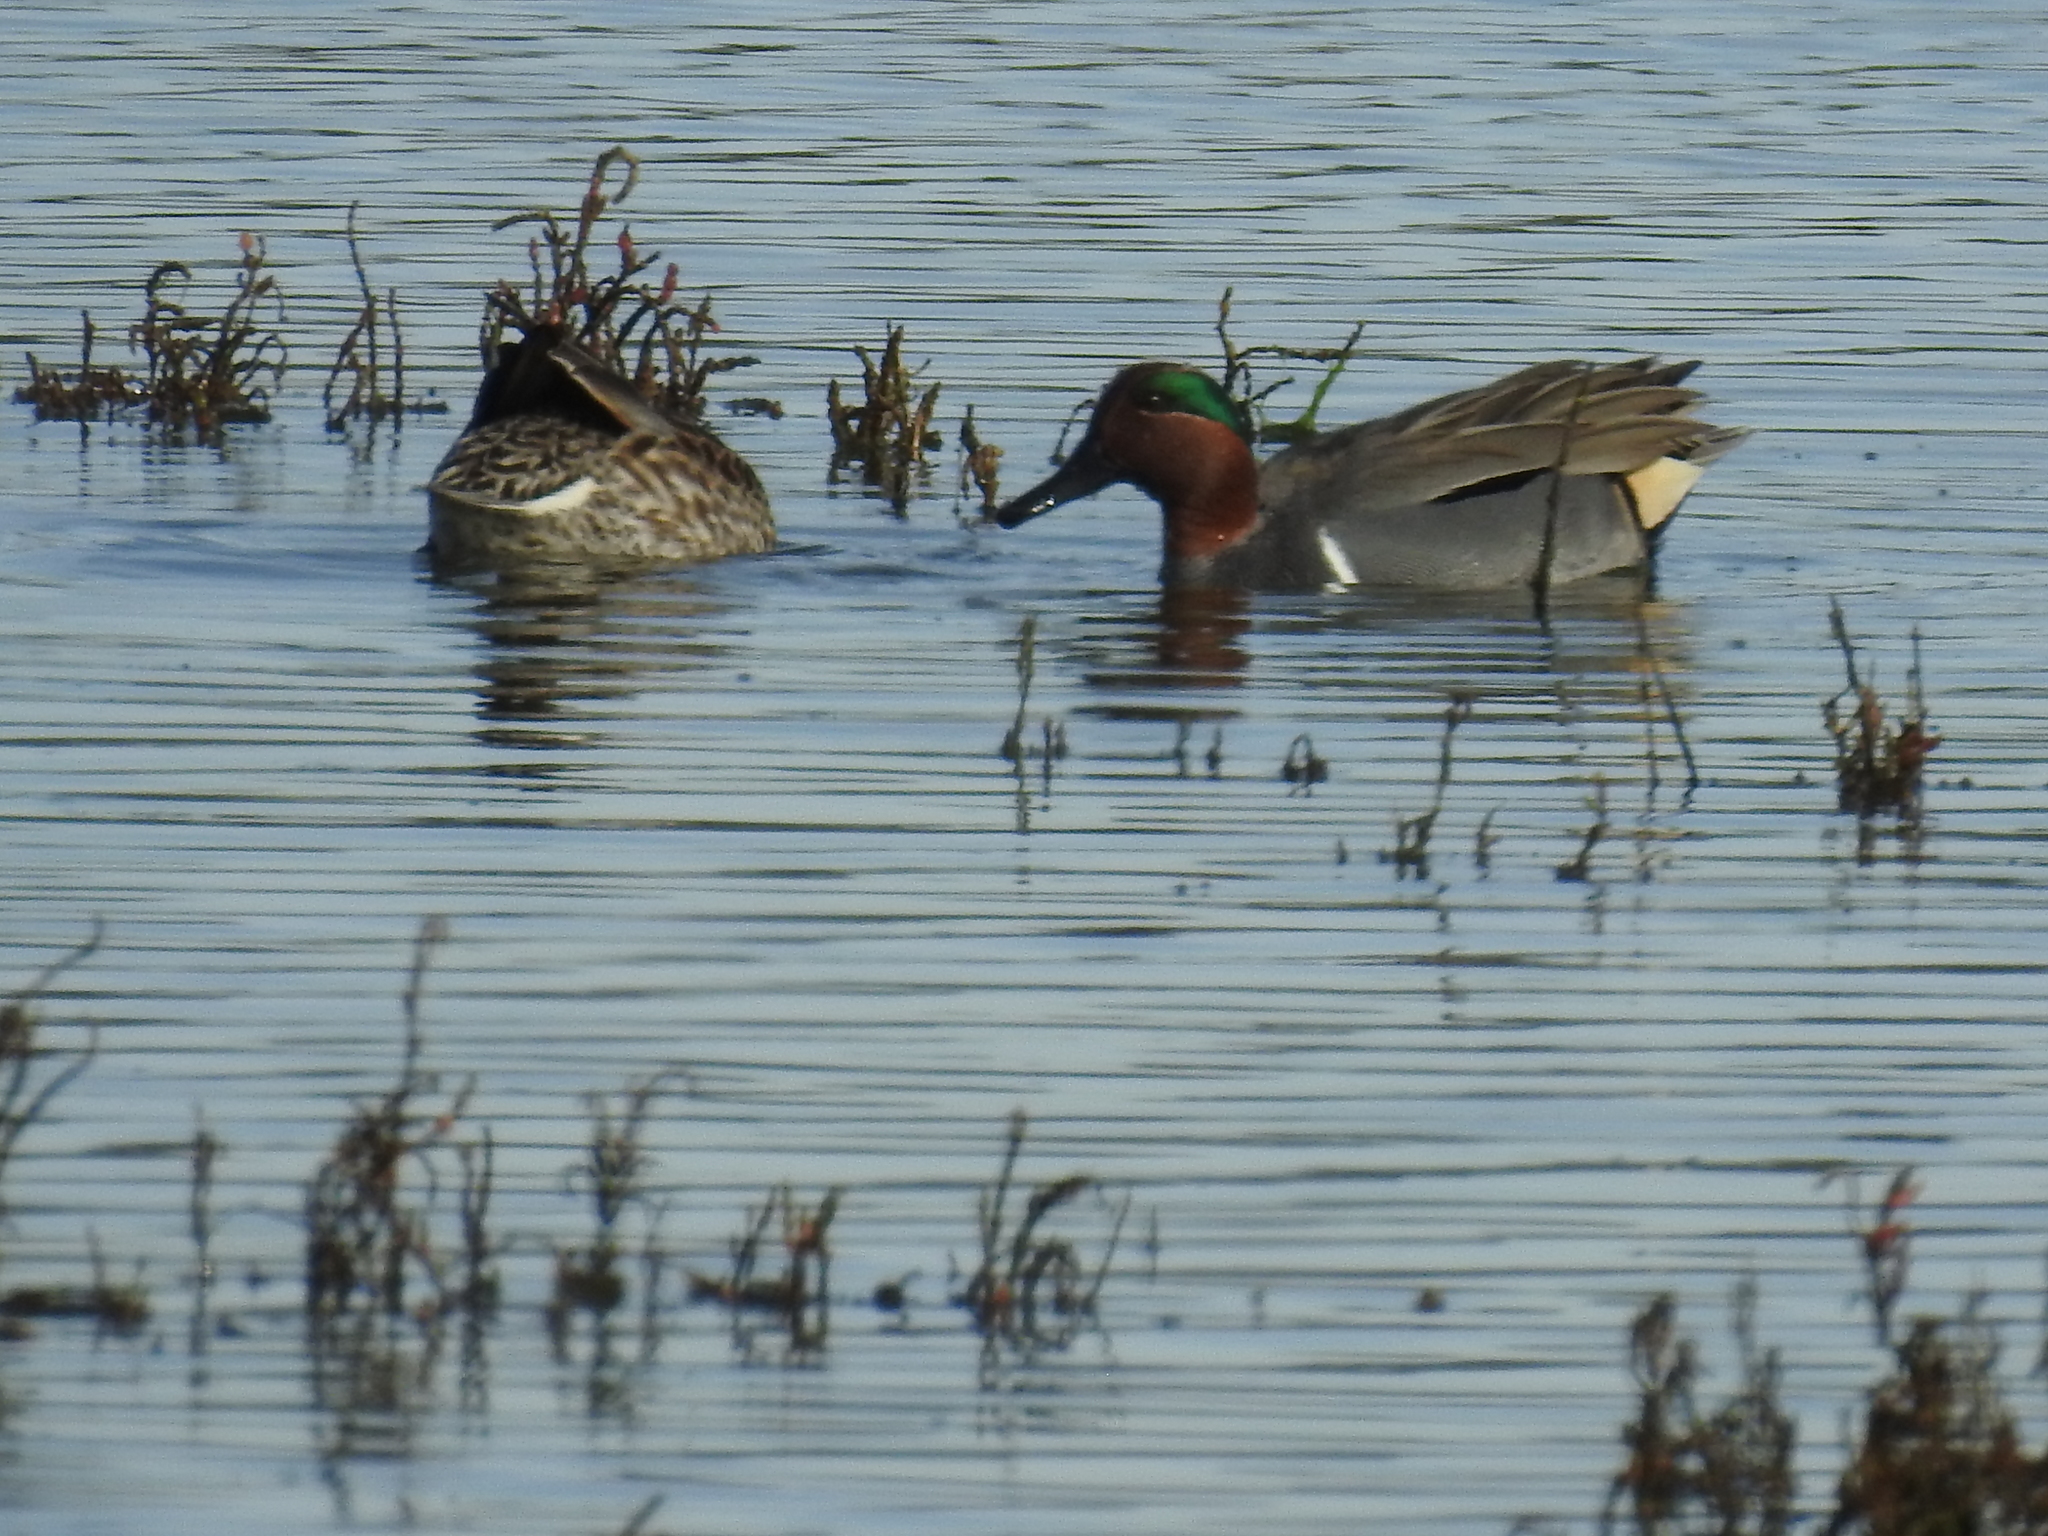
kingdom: Animalia
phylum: Chordata
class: Aves
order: Anseriformes
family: Anatidae
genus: Anas
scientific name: Anas crecca
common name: Eurasian teal
